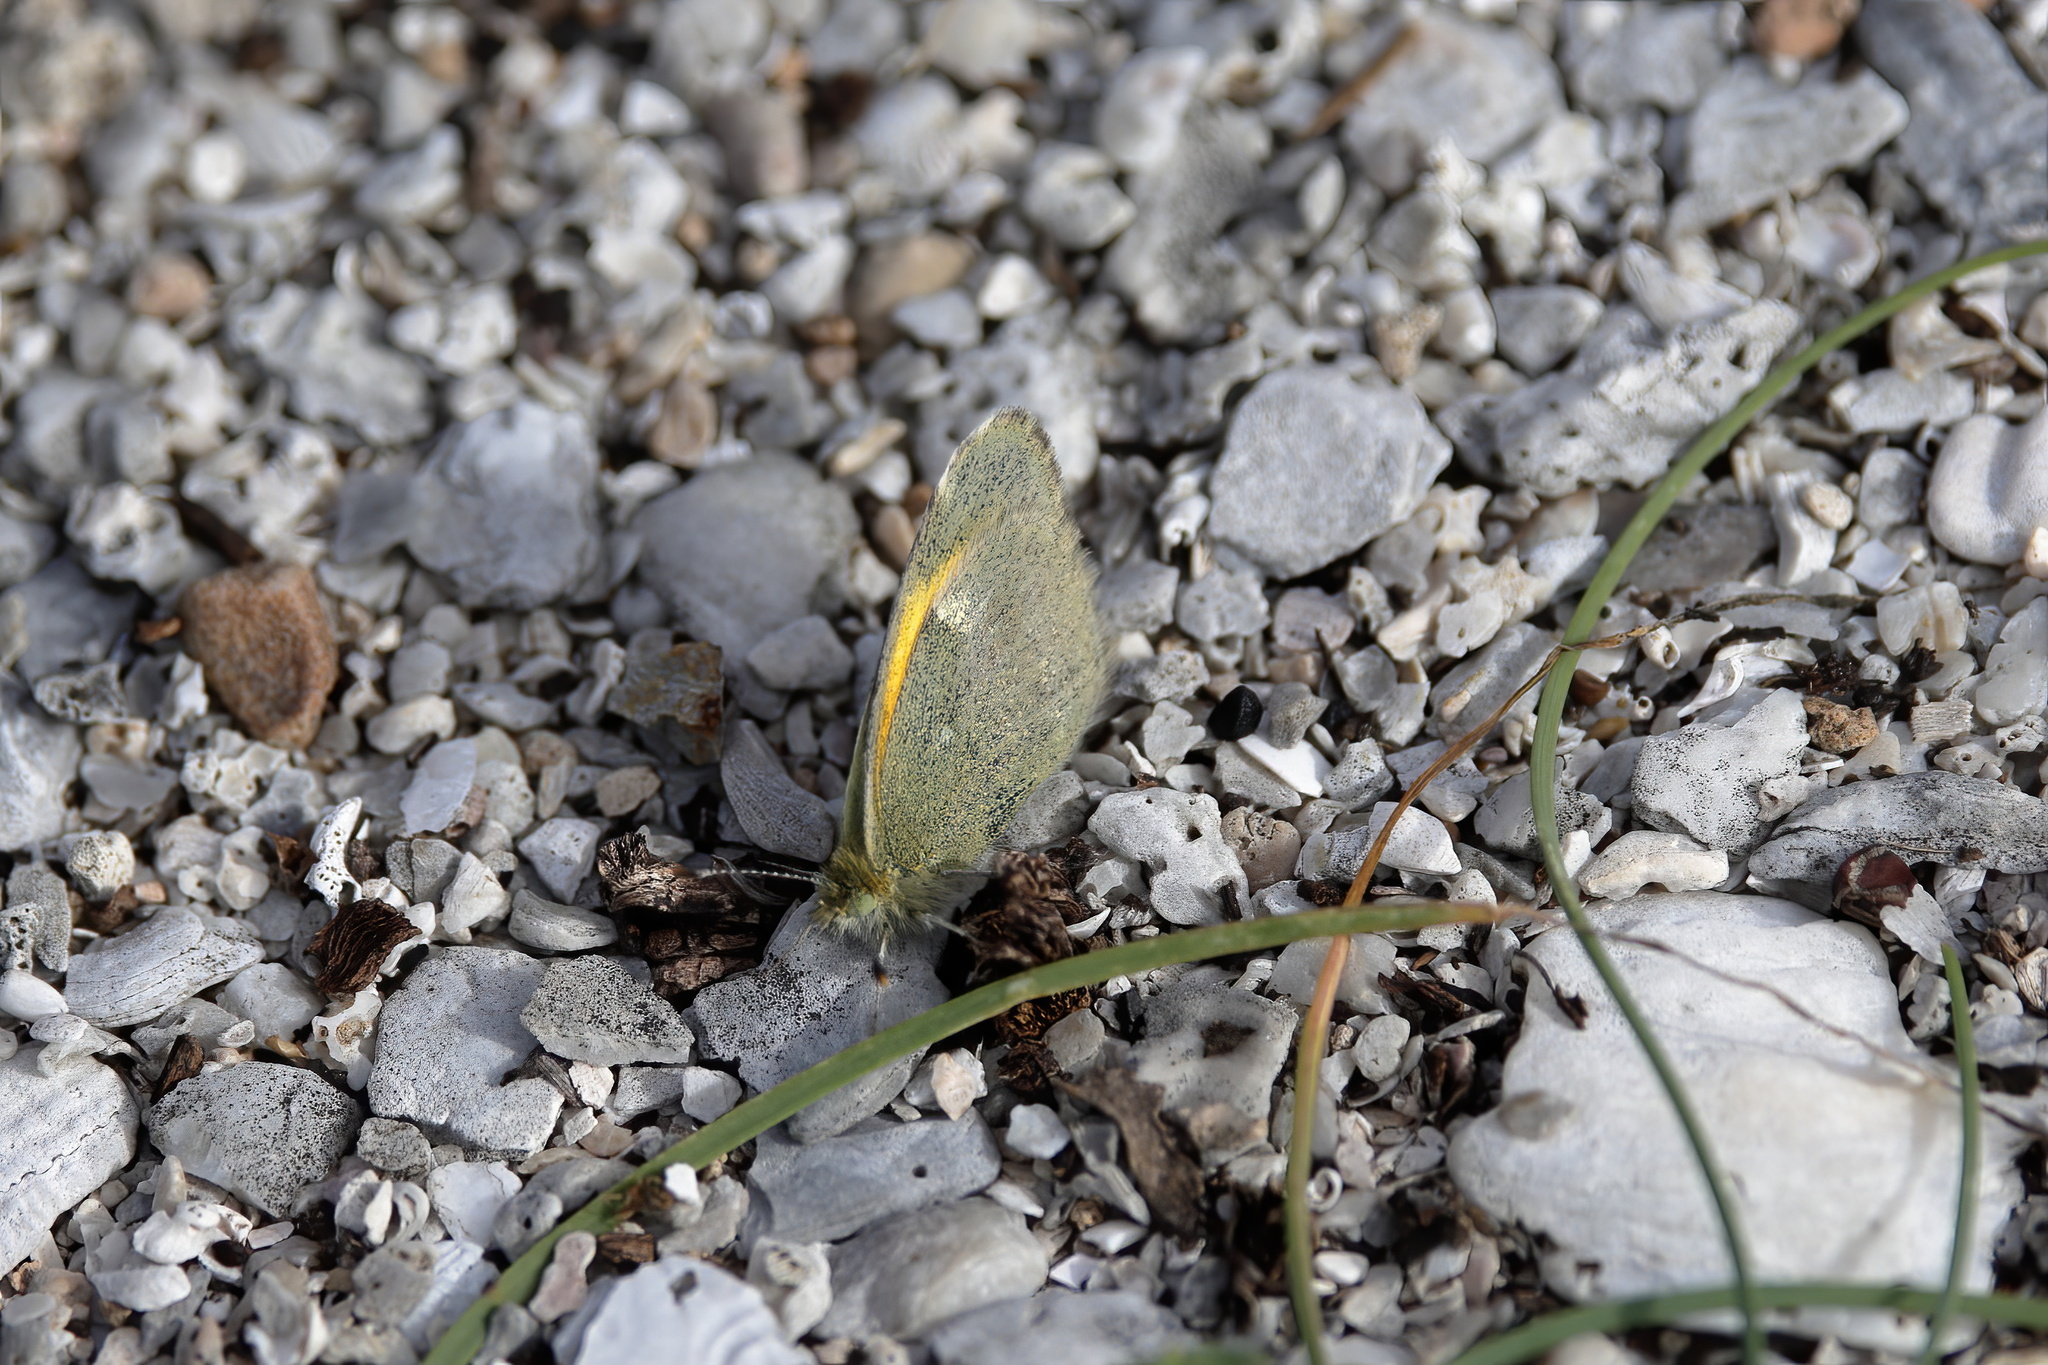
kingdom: Animalia
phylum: Arthropoda
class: Insecta
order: Lepidoptera
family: Pieridae
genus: Nathalis
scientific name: Nathalis iole
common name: Dainty sulphur
